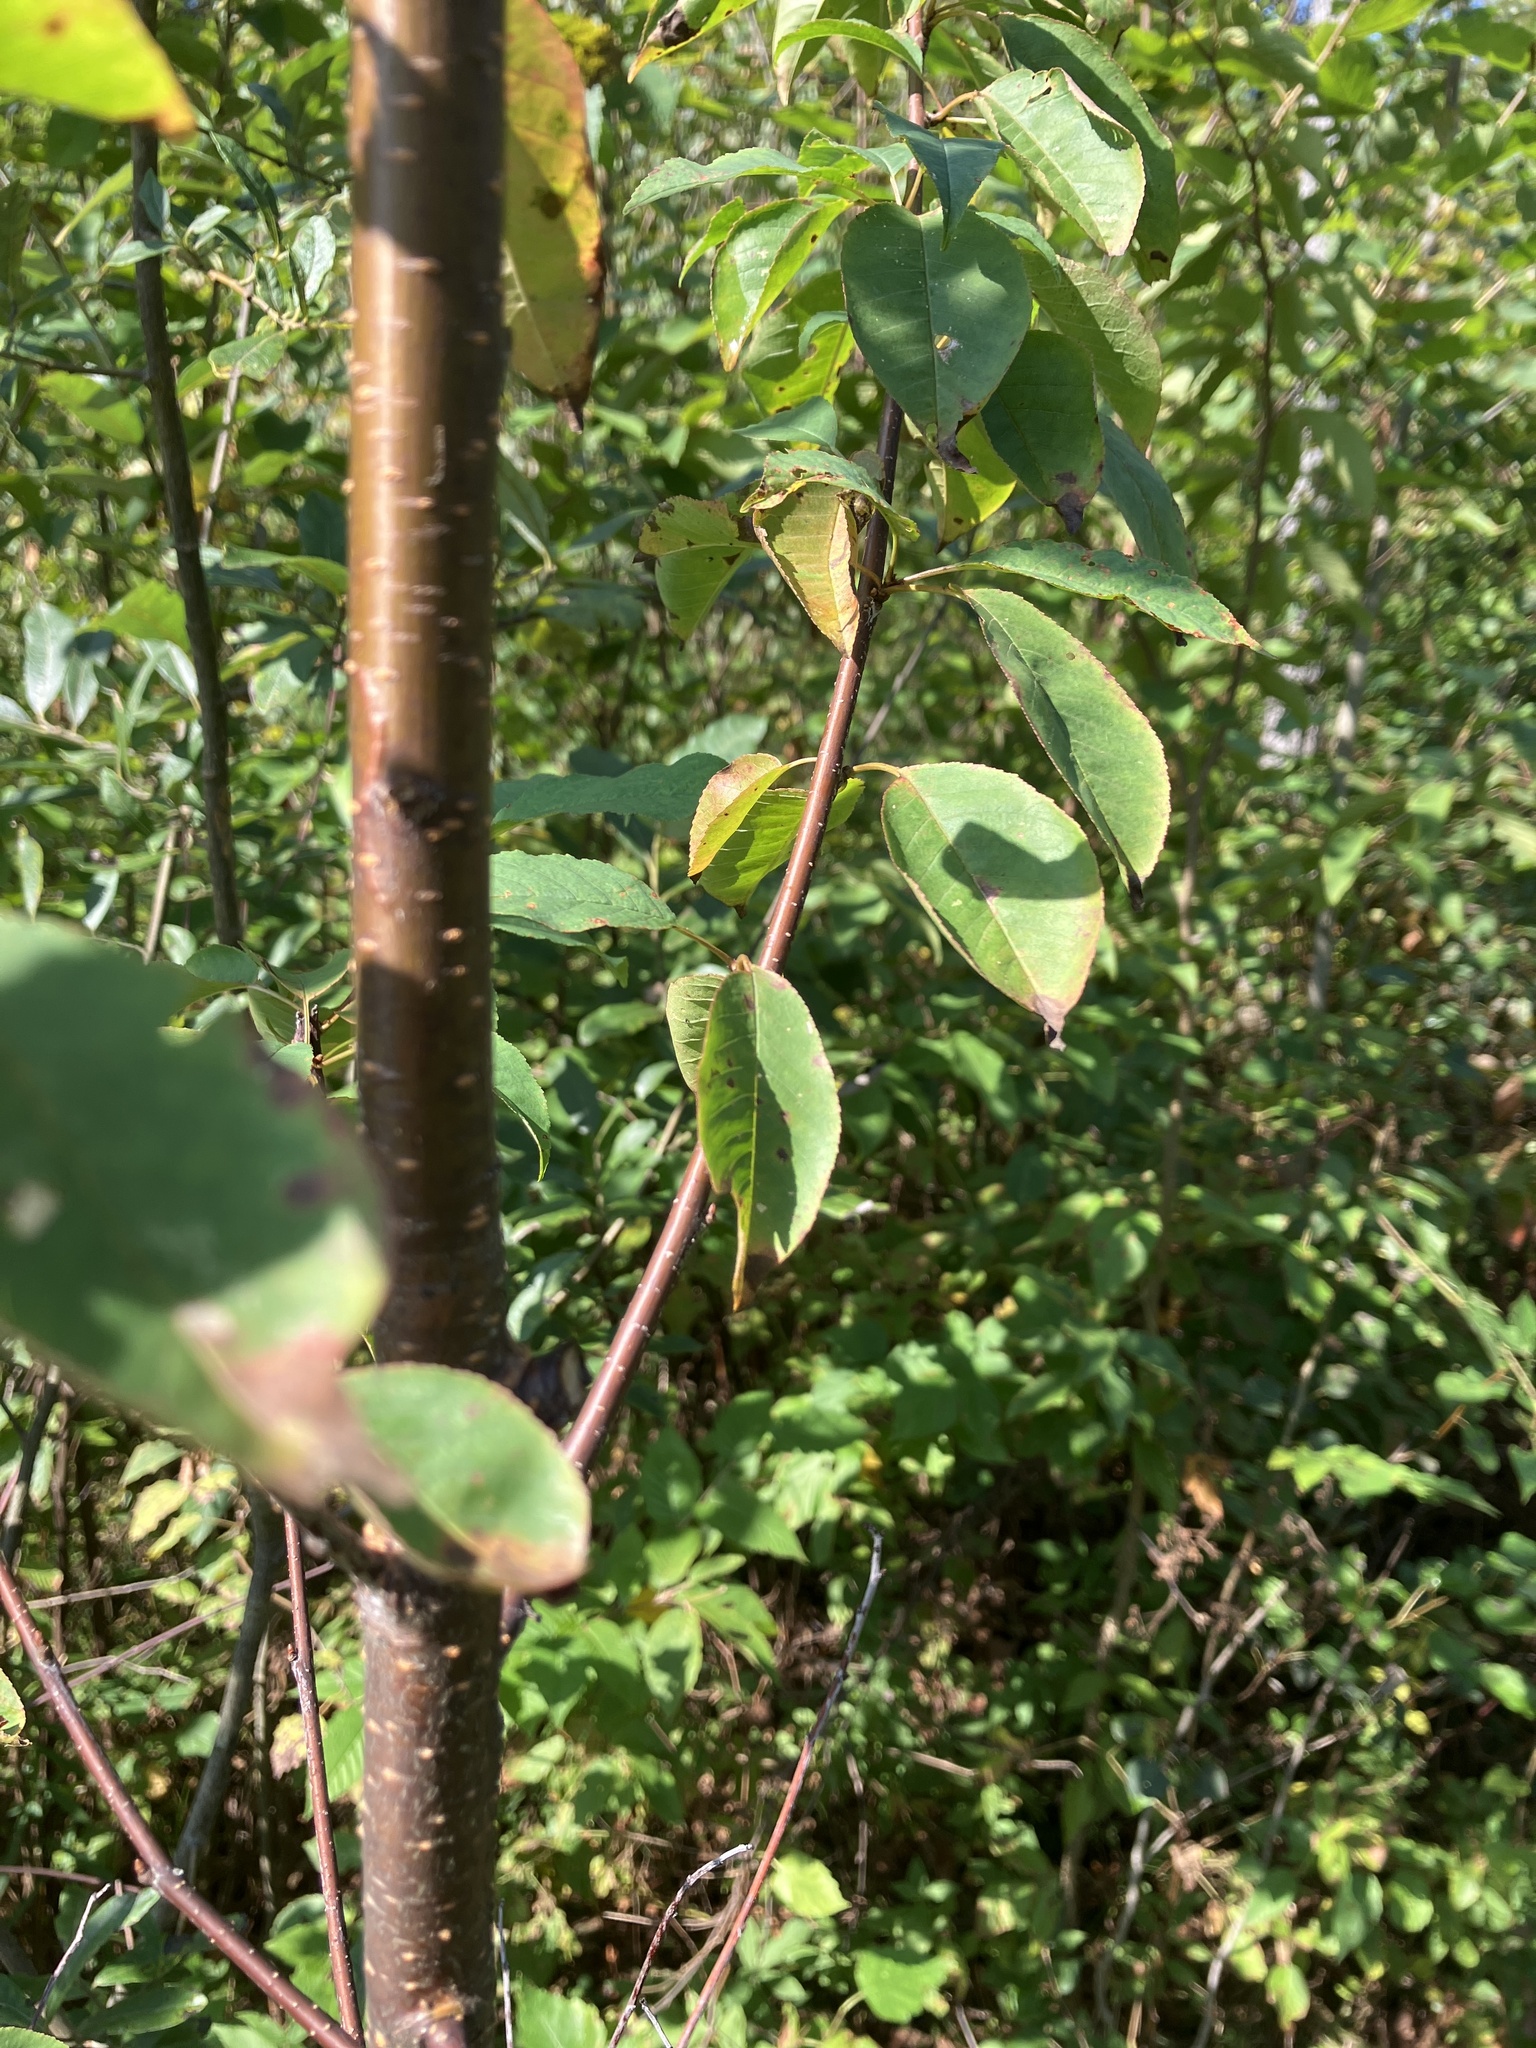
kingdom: Plantae
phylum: Tracheophyta
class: Magnoliopsida
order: Rosales
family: Rosaceae
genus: Prunus
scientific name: Prunus pensylvanica
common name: Pin cherry
